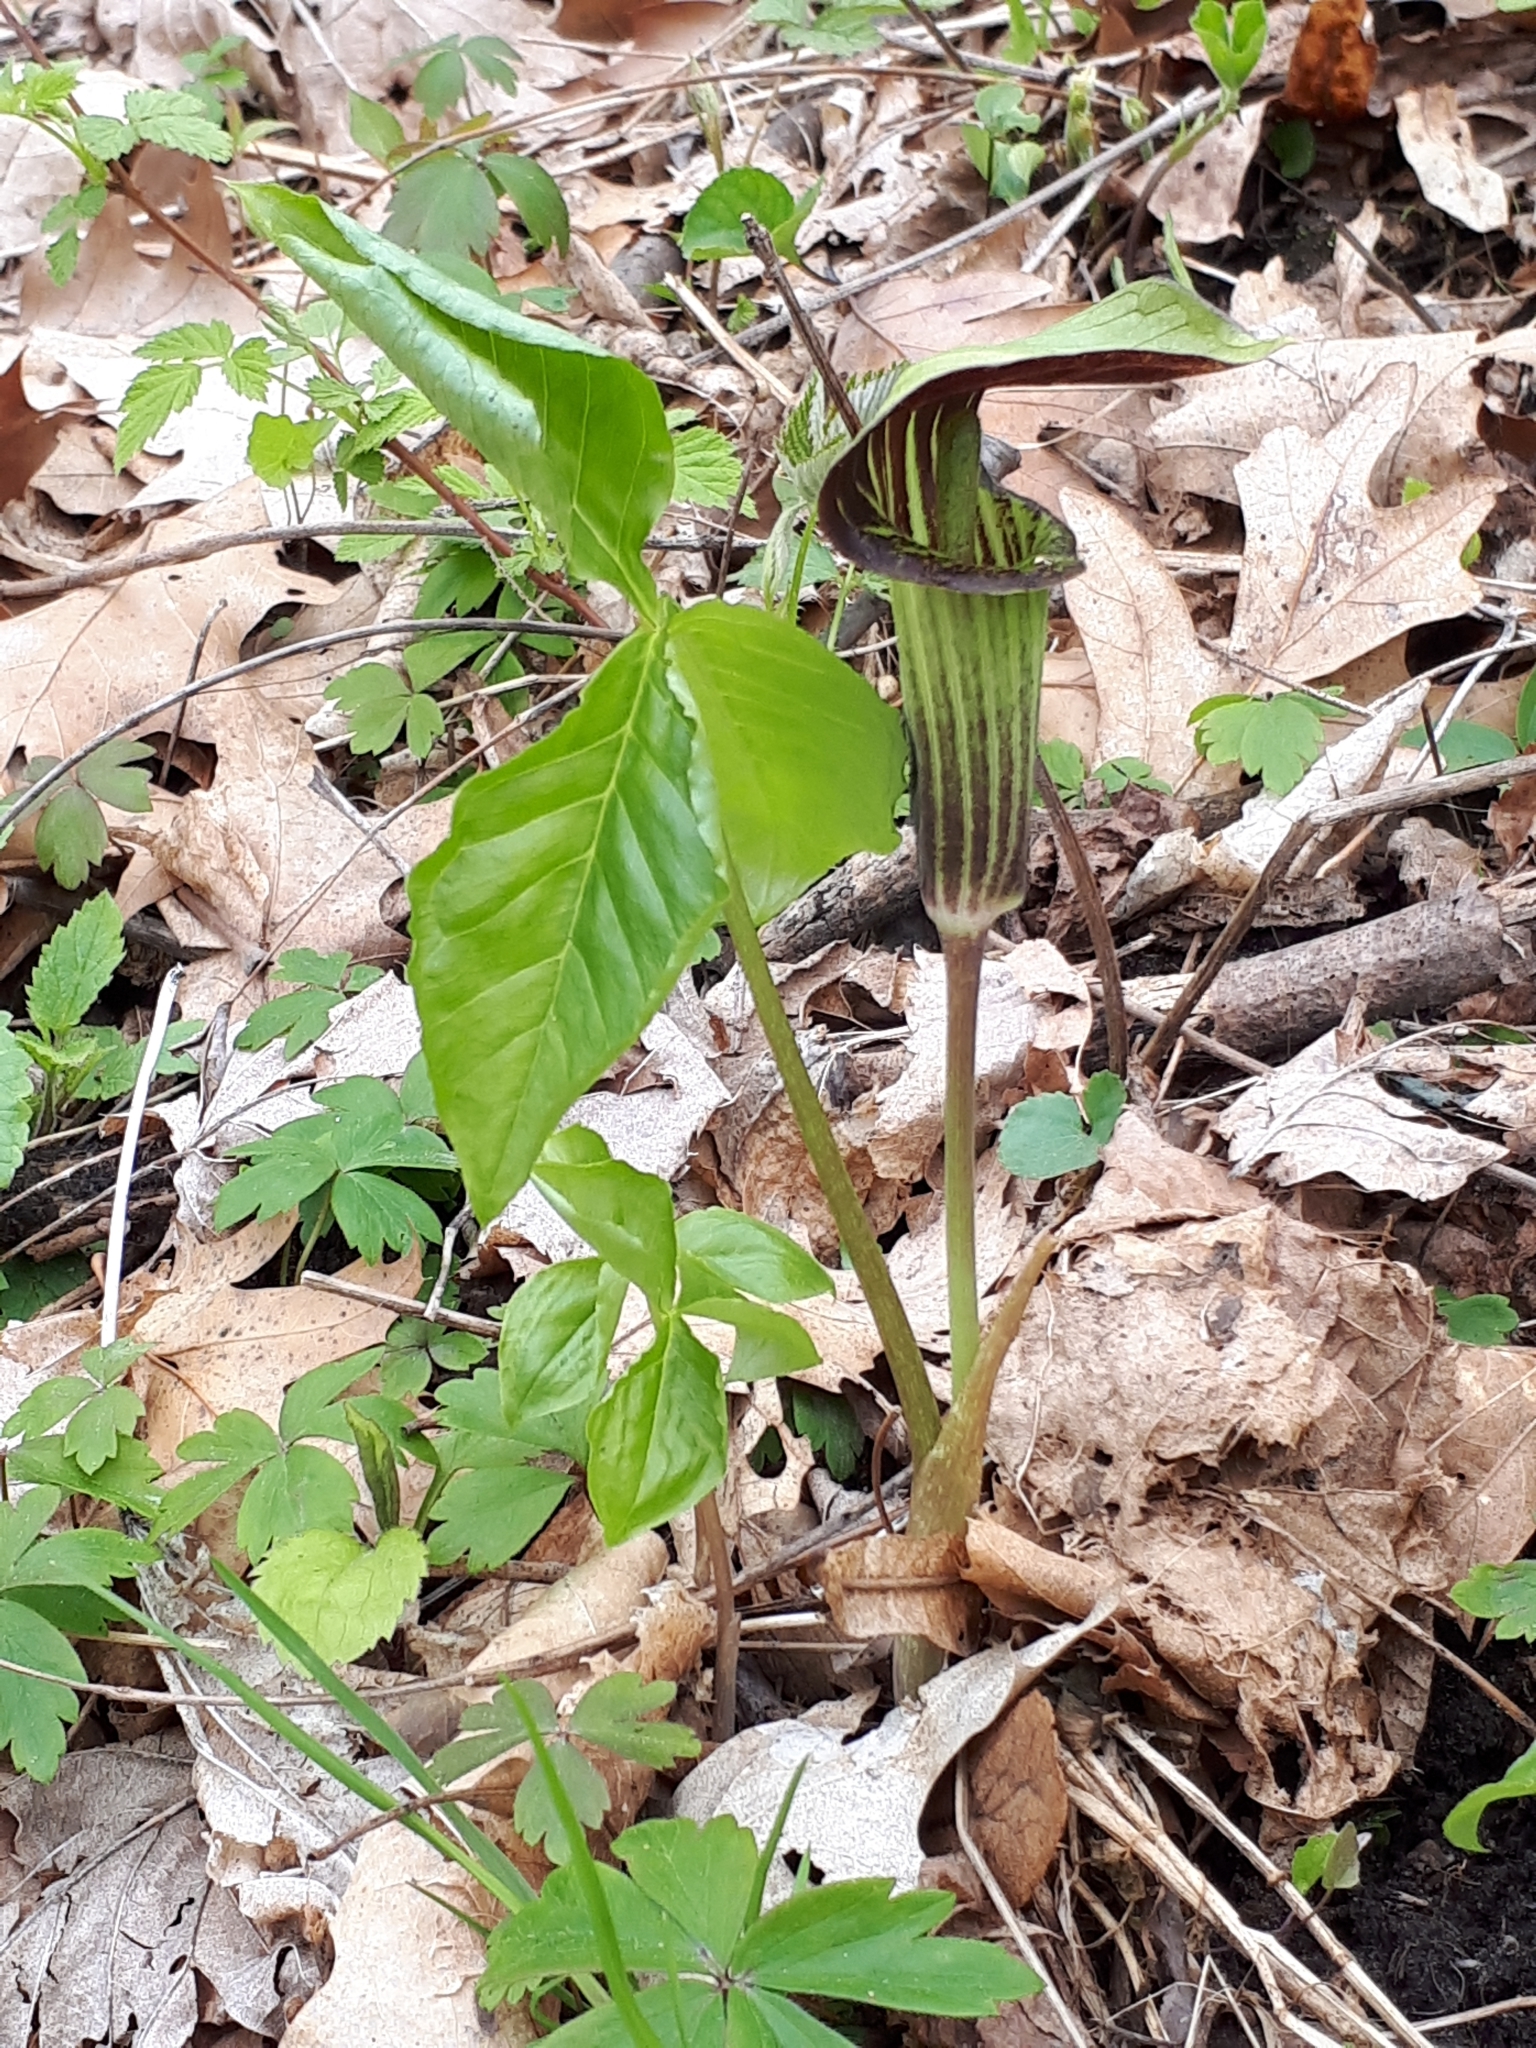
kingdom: Plantae
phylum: Tracheophyta
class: Liliopsida
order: Alismatales
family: Araceae
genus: Arisaema
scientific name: Arisaema triphyllum
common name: Jack-in-the-pulpit
